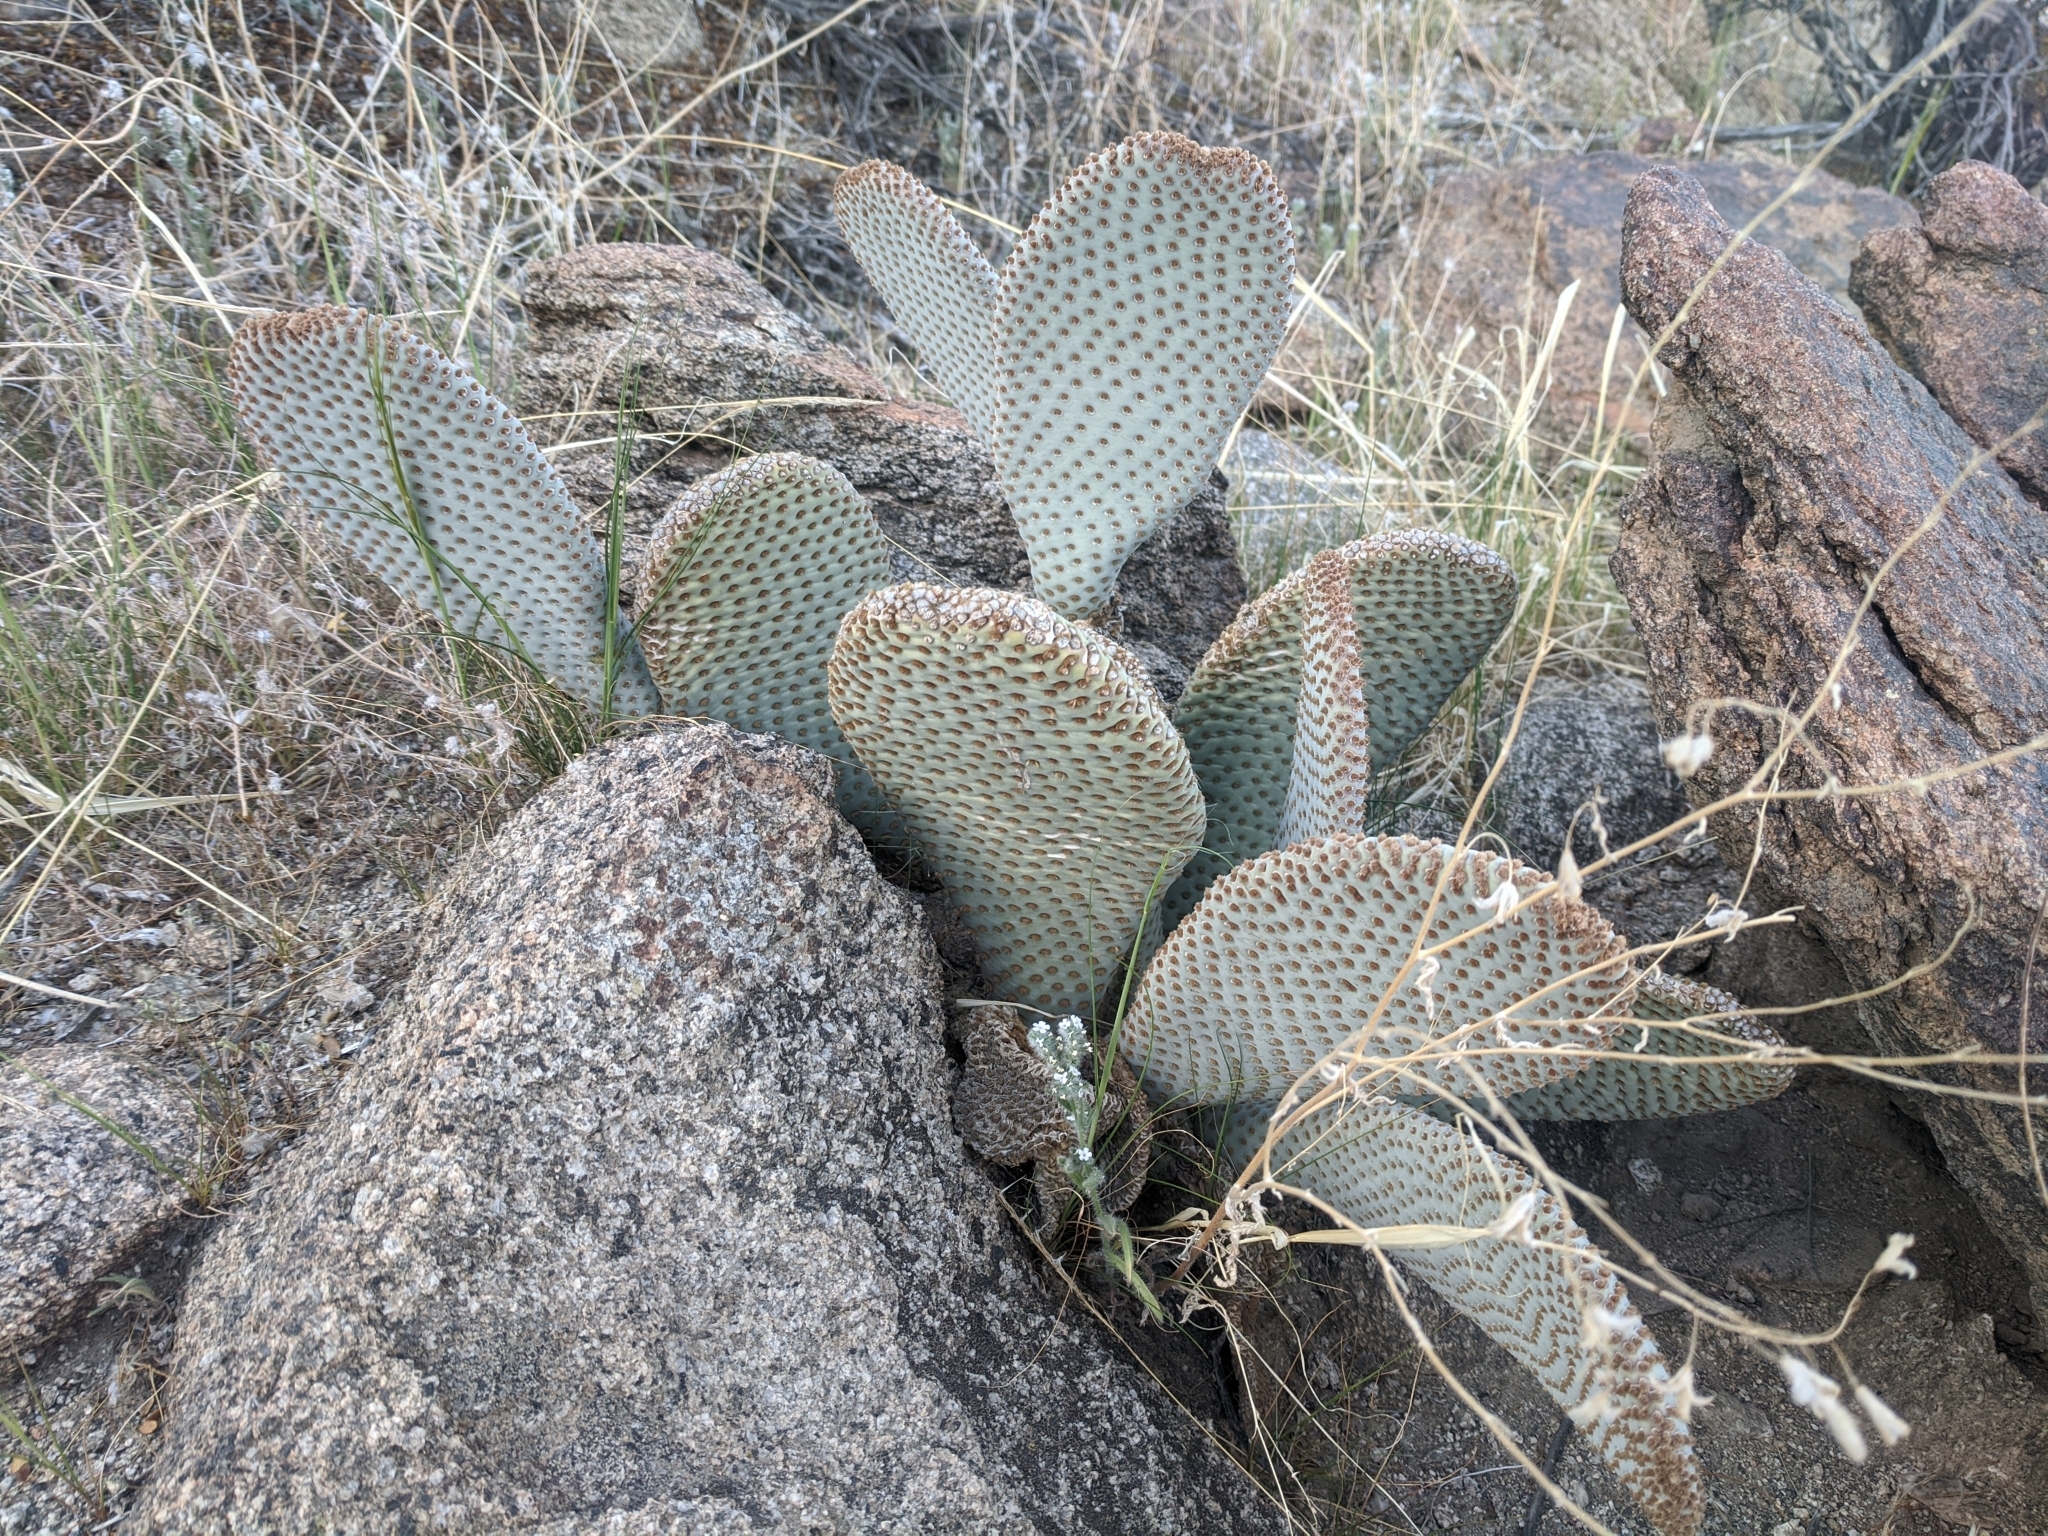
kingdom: Plantae
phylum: Tracheophyta
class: Magnoliopsida
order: Caryophyllales
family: Cactaceae
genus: Opuntia
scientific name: Opuntia basilaris
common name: Beavertail prickly-pear
